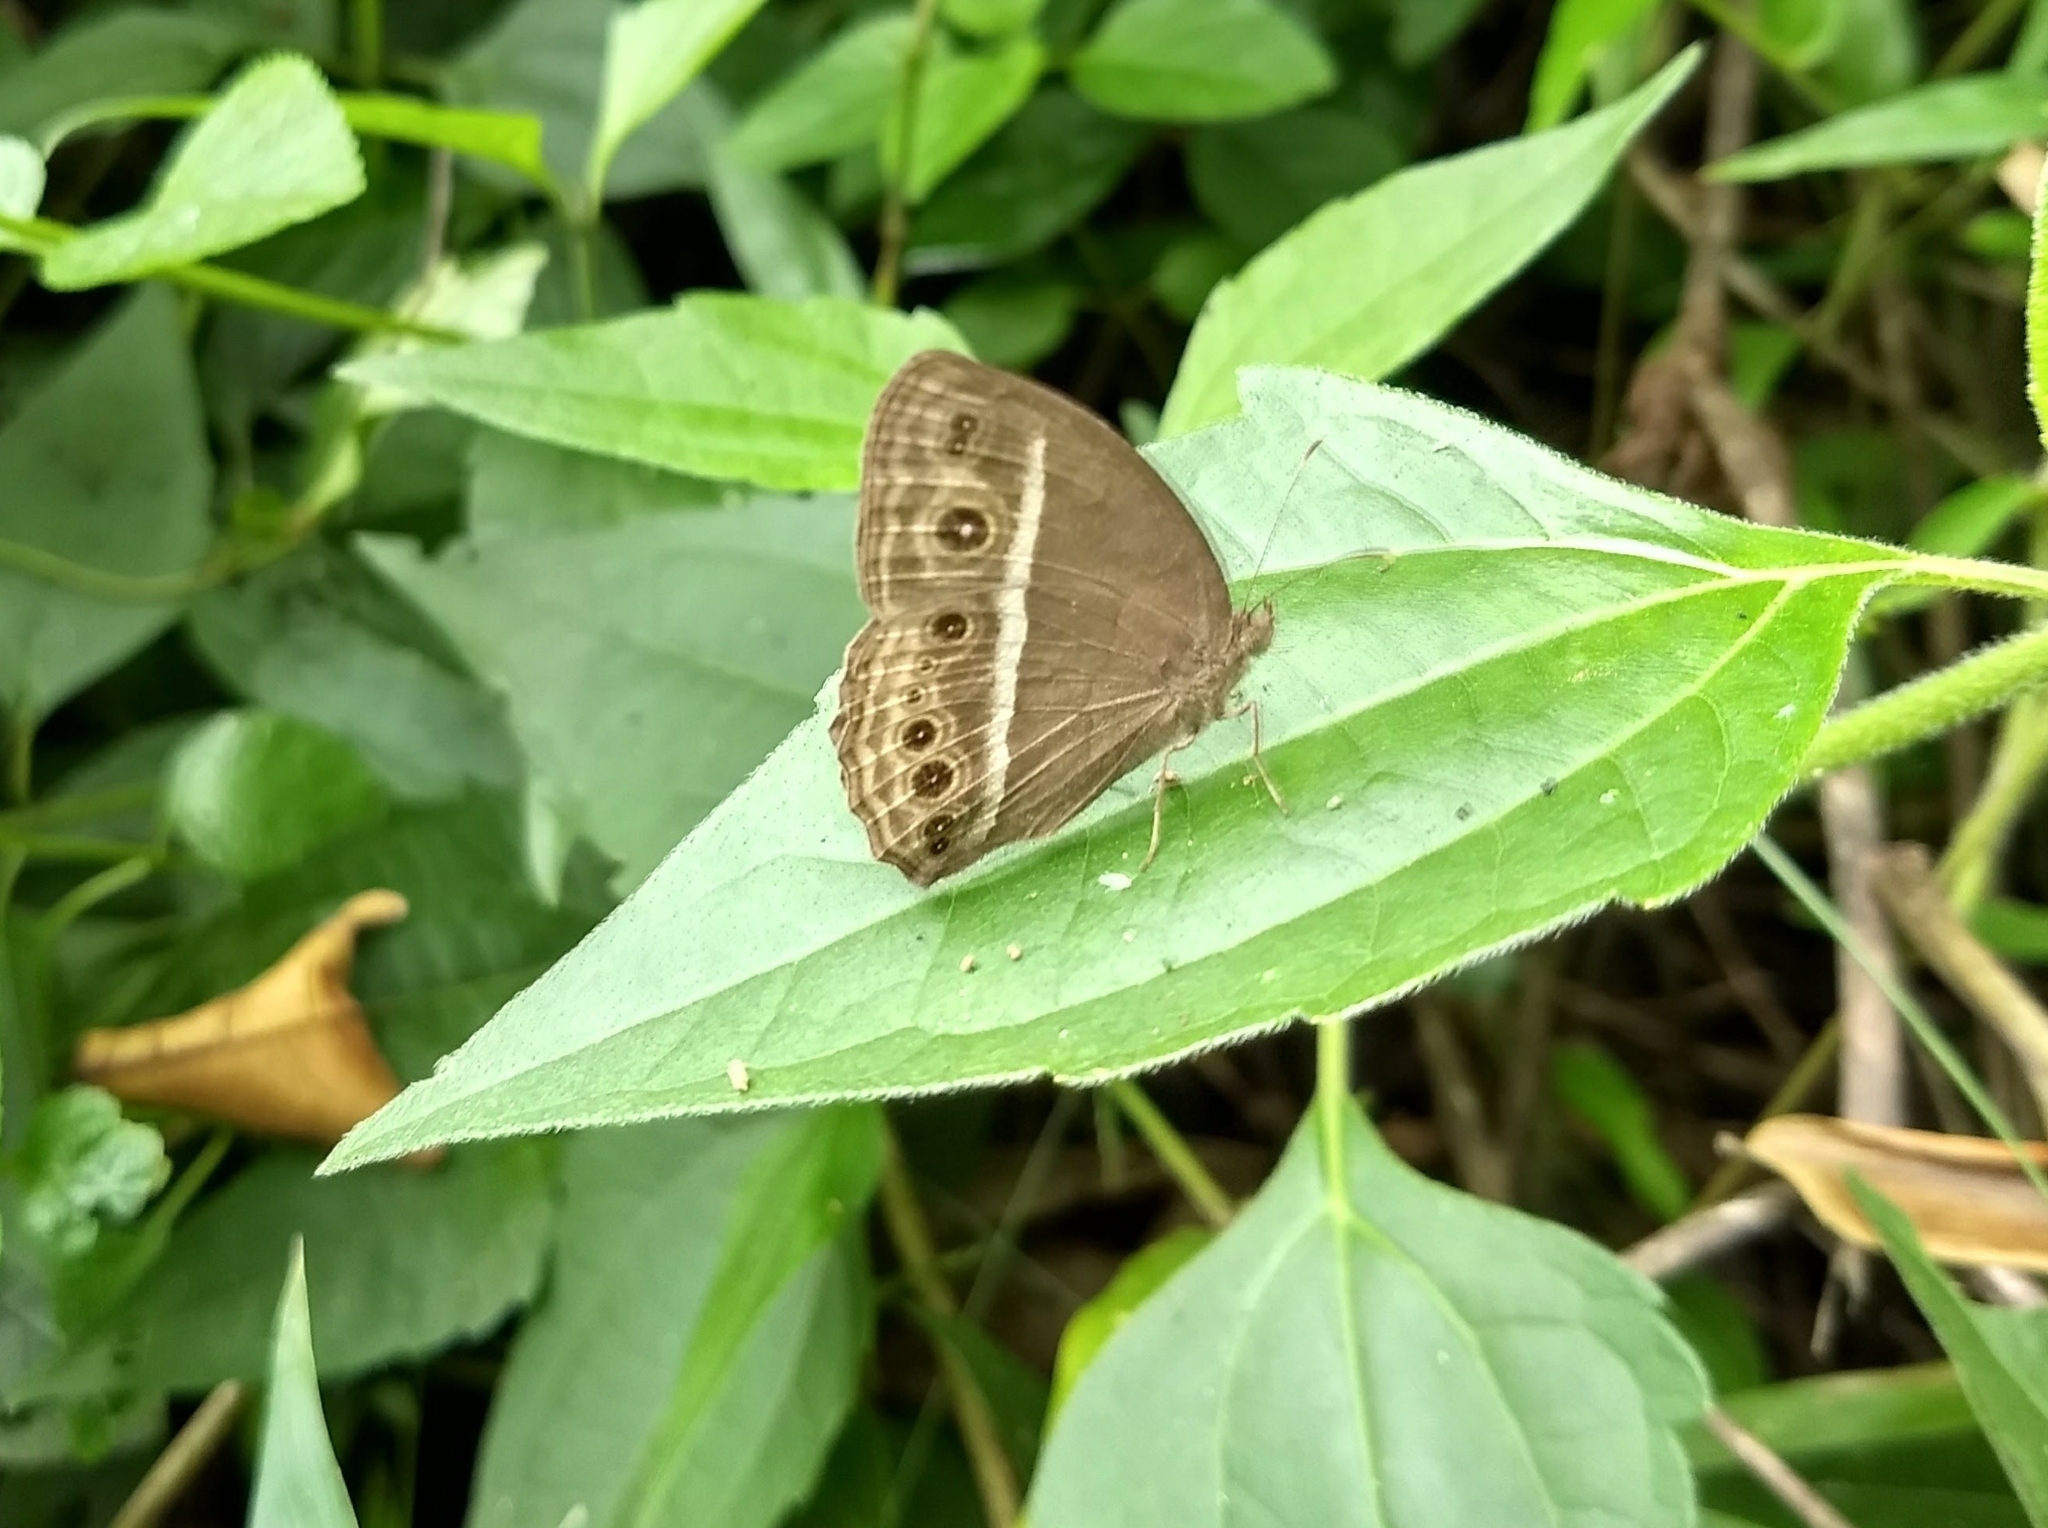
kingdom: Animalia
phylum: Arthropoda
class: Insecta
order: Lepidoptera
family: Nymphalidae
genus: Mycalesis
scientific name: Mycalesis mineus
